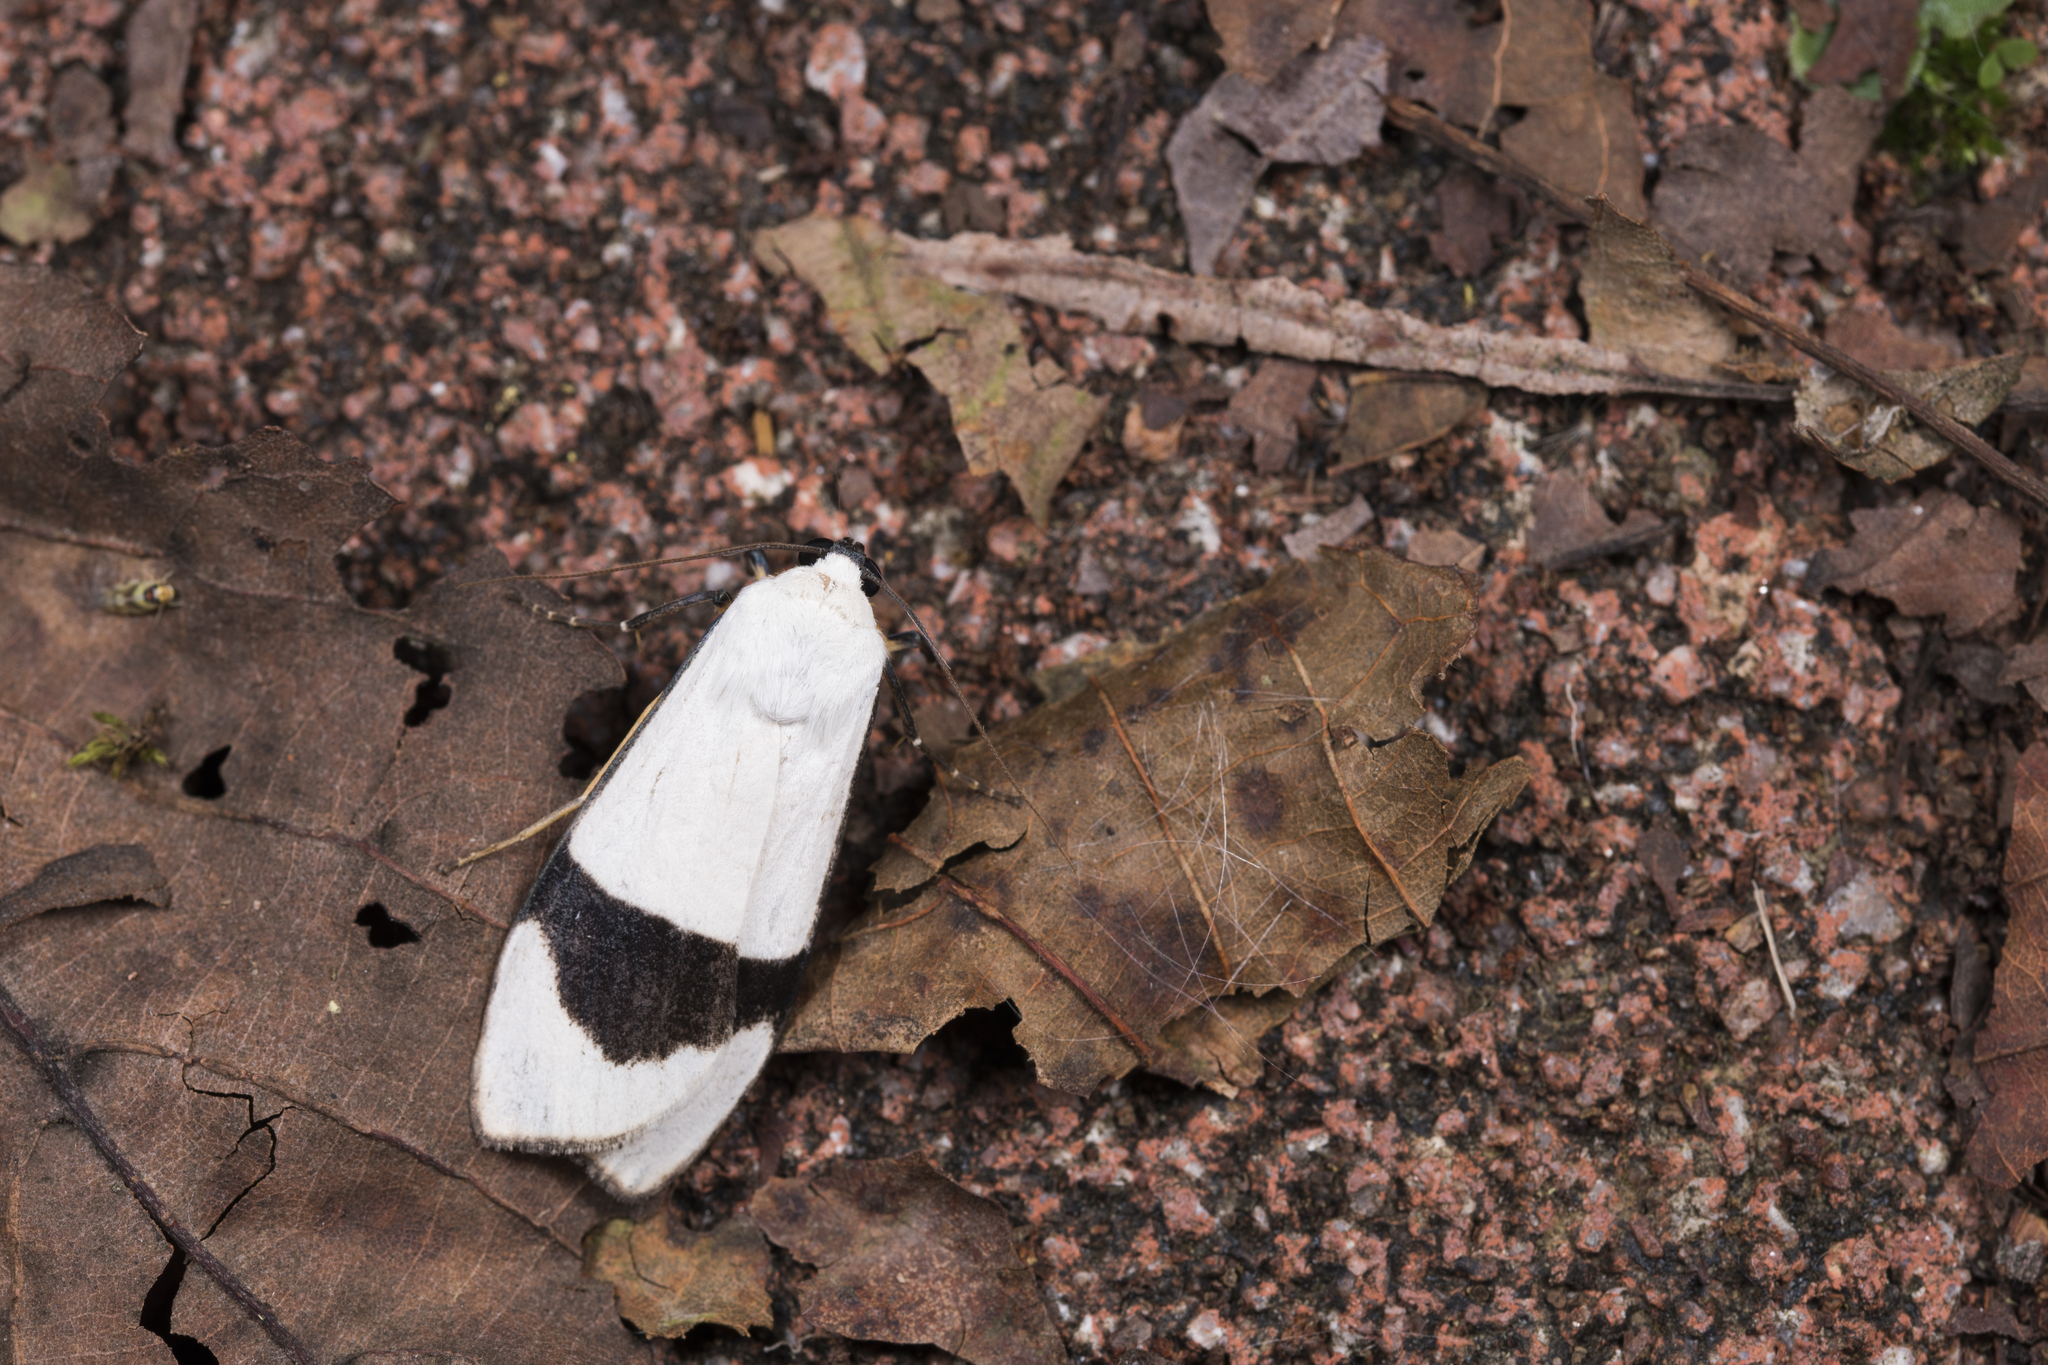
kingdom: Animalia
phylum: Arthropoda
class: Insecta
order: Lepidoptera
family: Erebidae
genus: Vamuna
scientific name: Vamuna alboluteola
